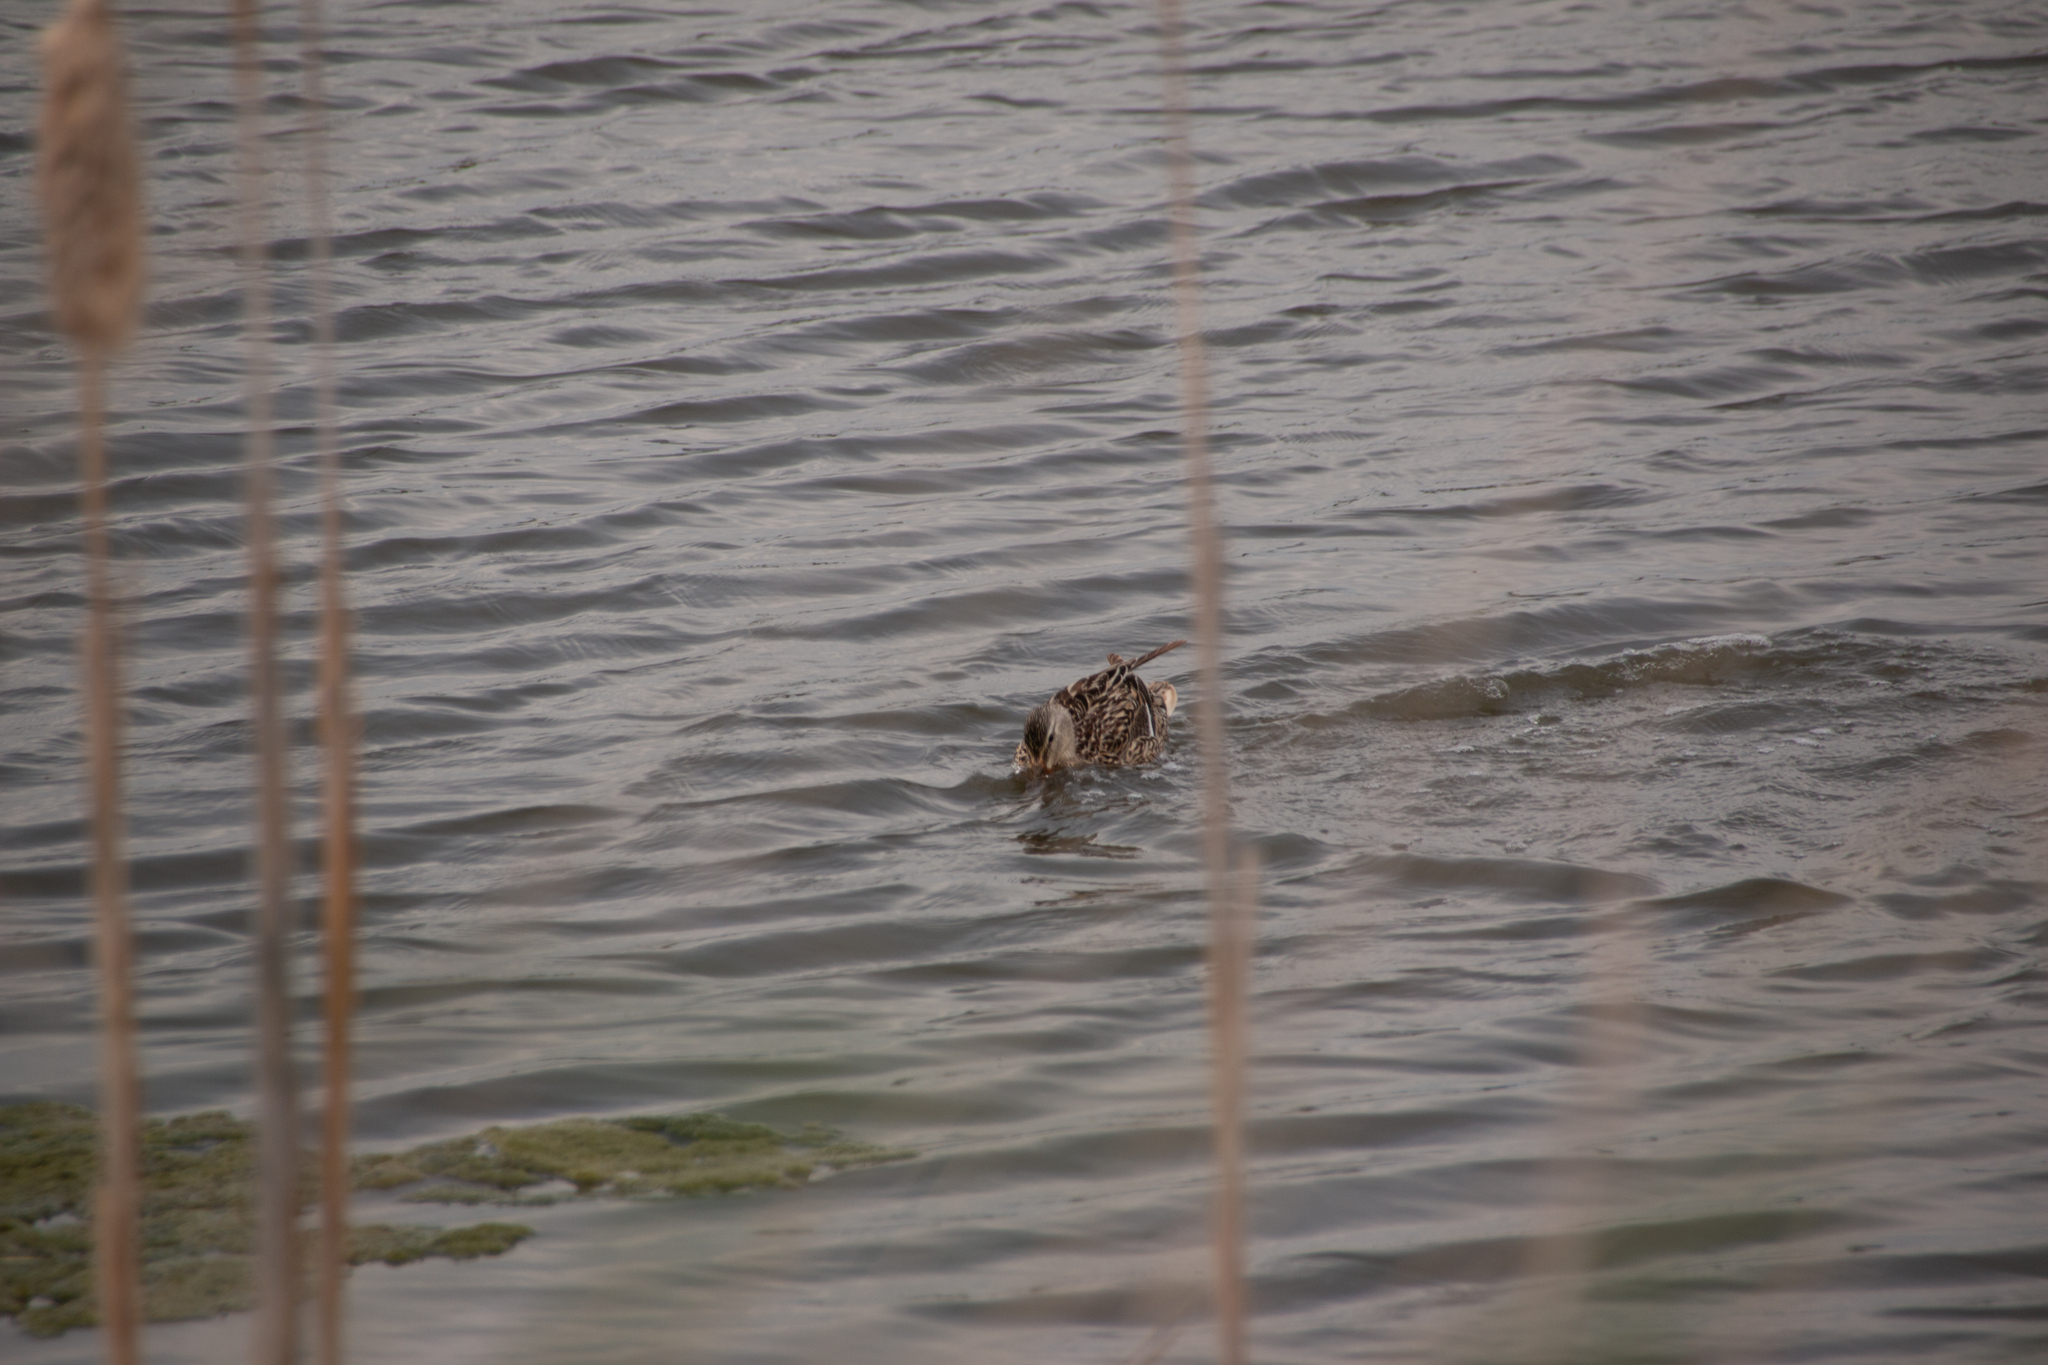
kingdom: Animalia
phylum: Chordata
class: Aves
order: Anseriformes
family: Anatidae
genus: Anas
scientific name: Anas platyrhynchos
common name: Mallard
